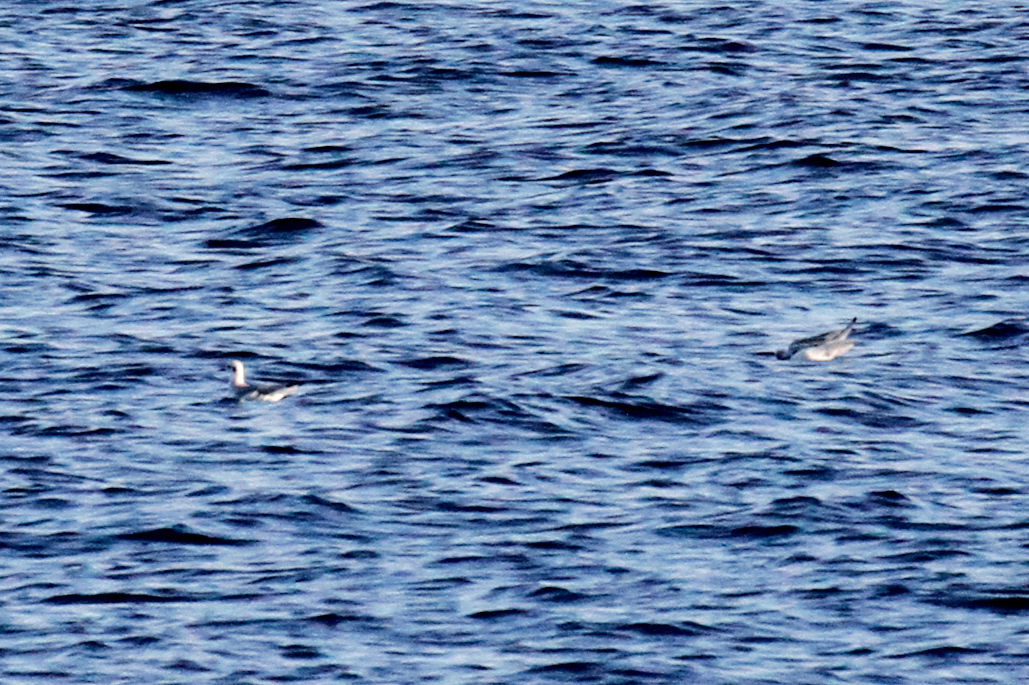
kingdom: Animalia
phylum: Chordata
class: Aves
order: Charadriiformes
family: Laridae
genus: Chroicocephalus
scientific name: Chroicocephalus philadelphia
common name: Bonaparte's gull
